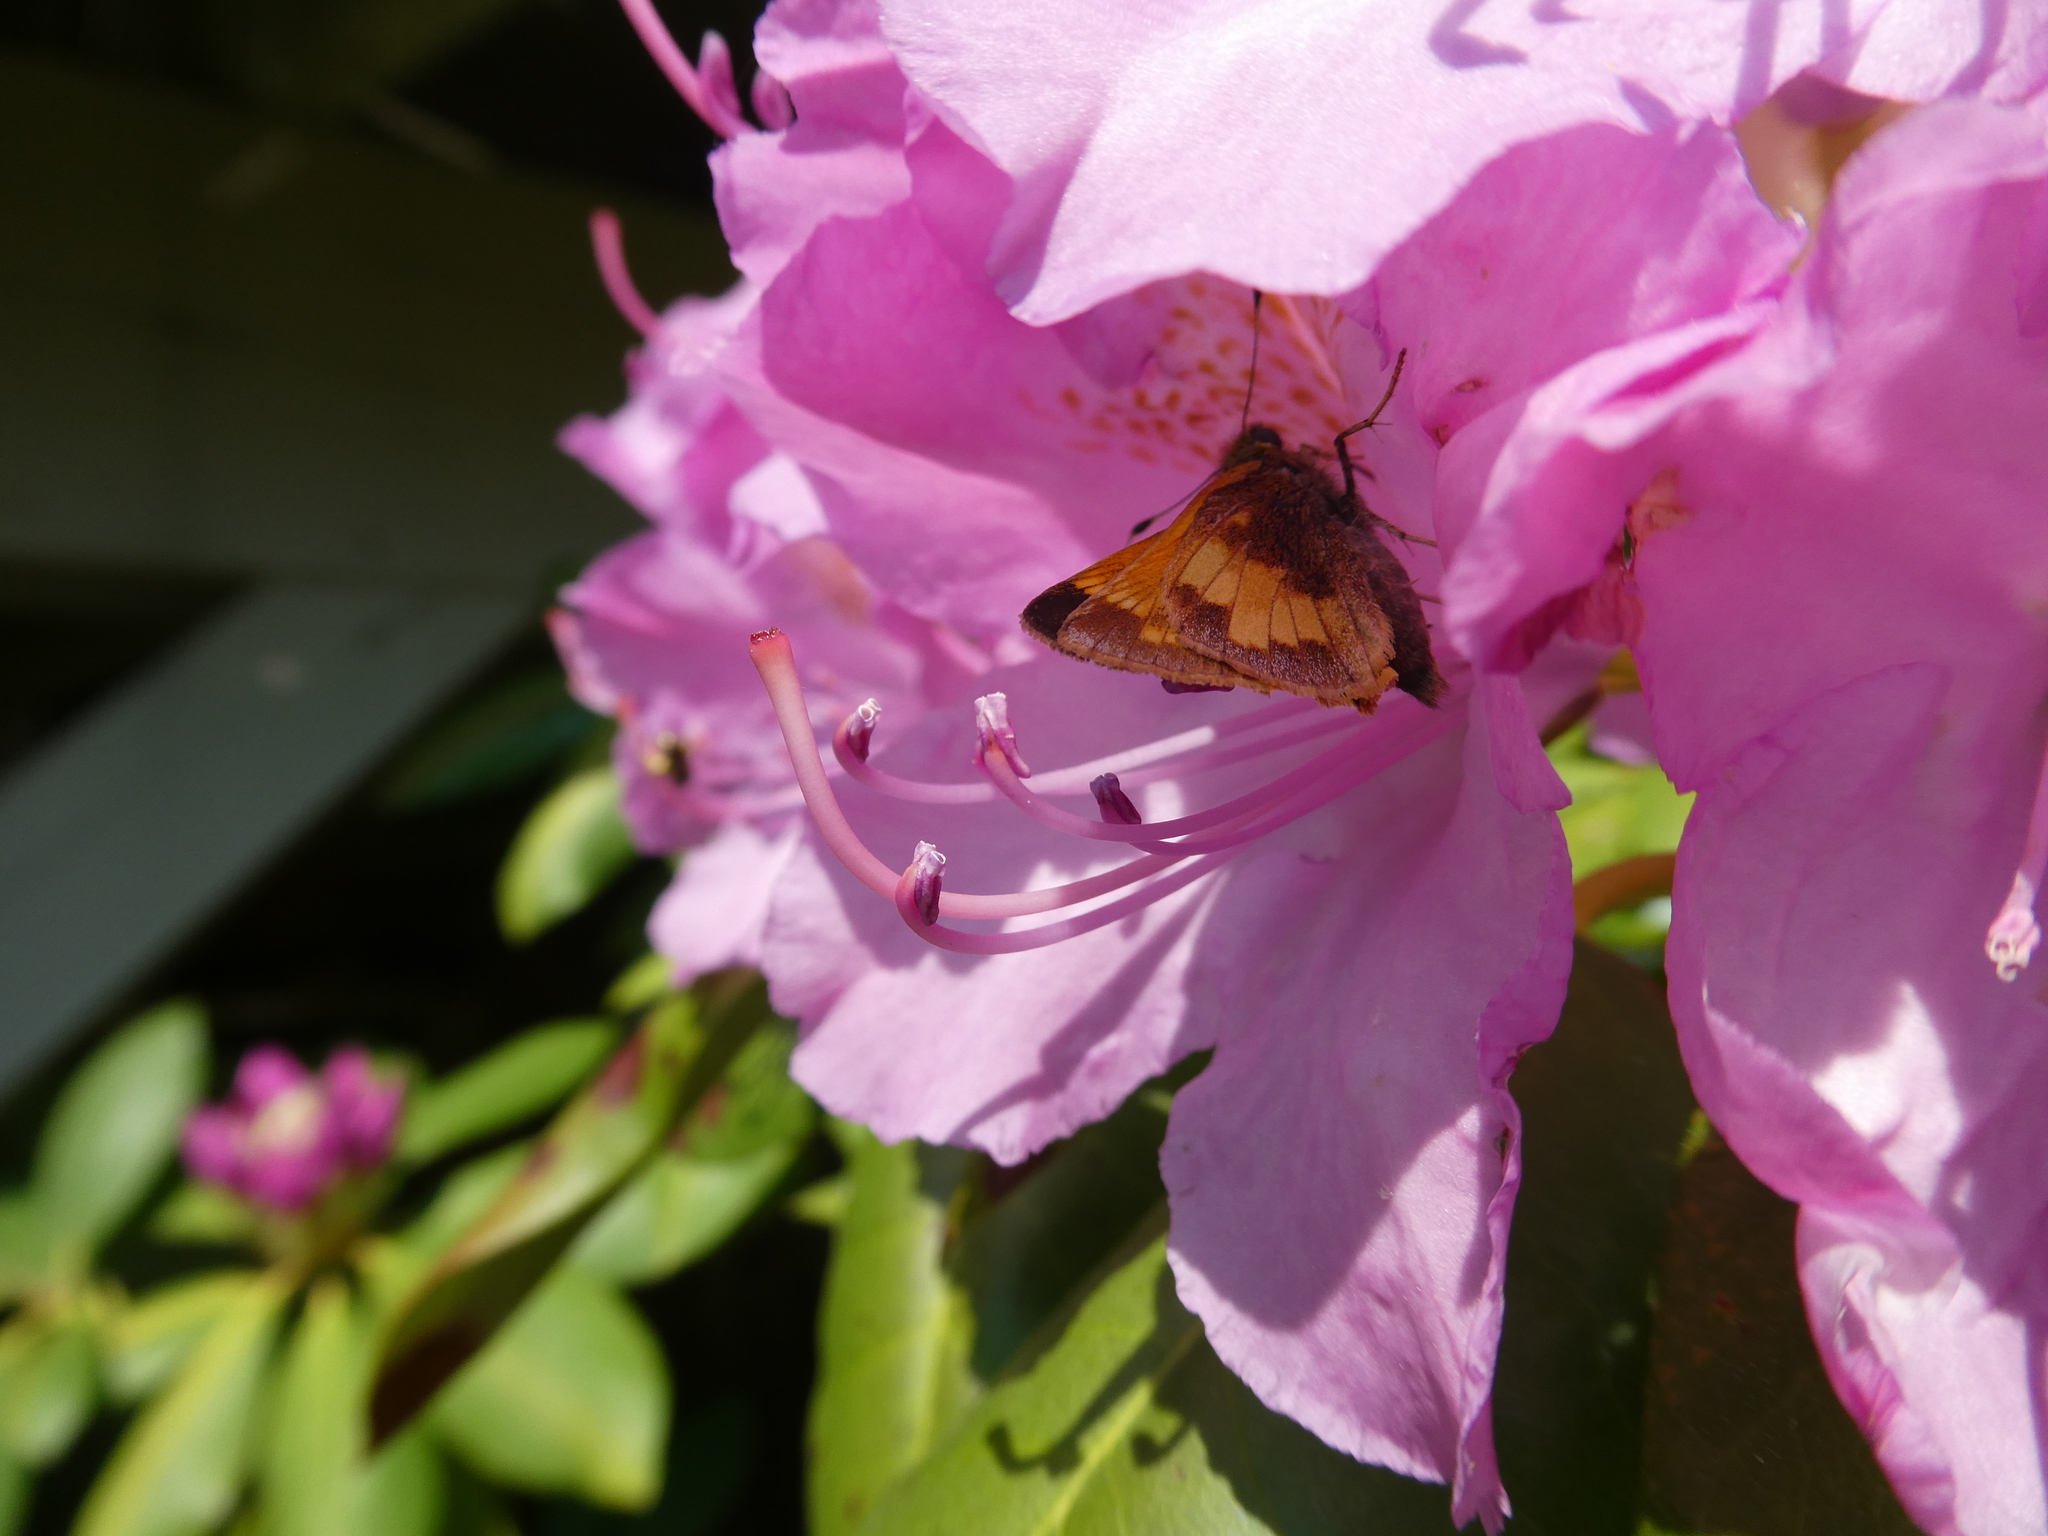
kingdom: Animalia
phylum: Arthropoda
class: Insecta
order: Lepidoptera
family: Hesperiidae
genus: Lon
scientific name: Lon hobomok
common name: Hobomok skipper
